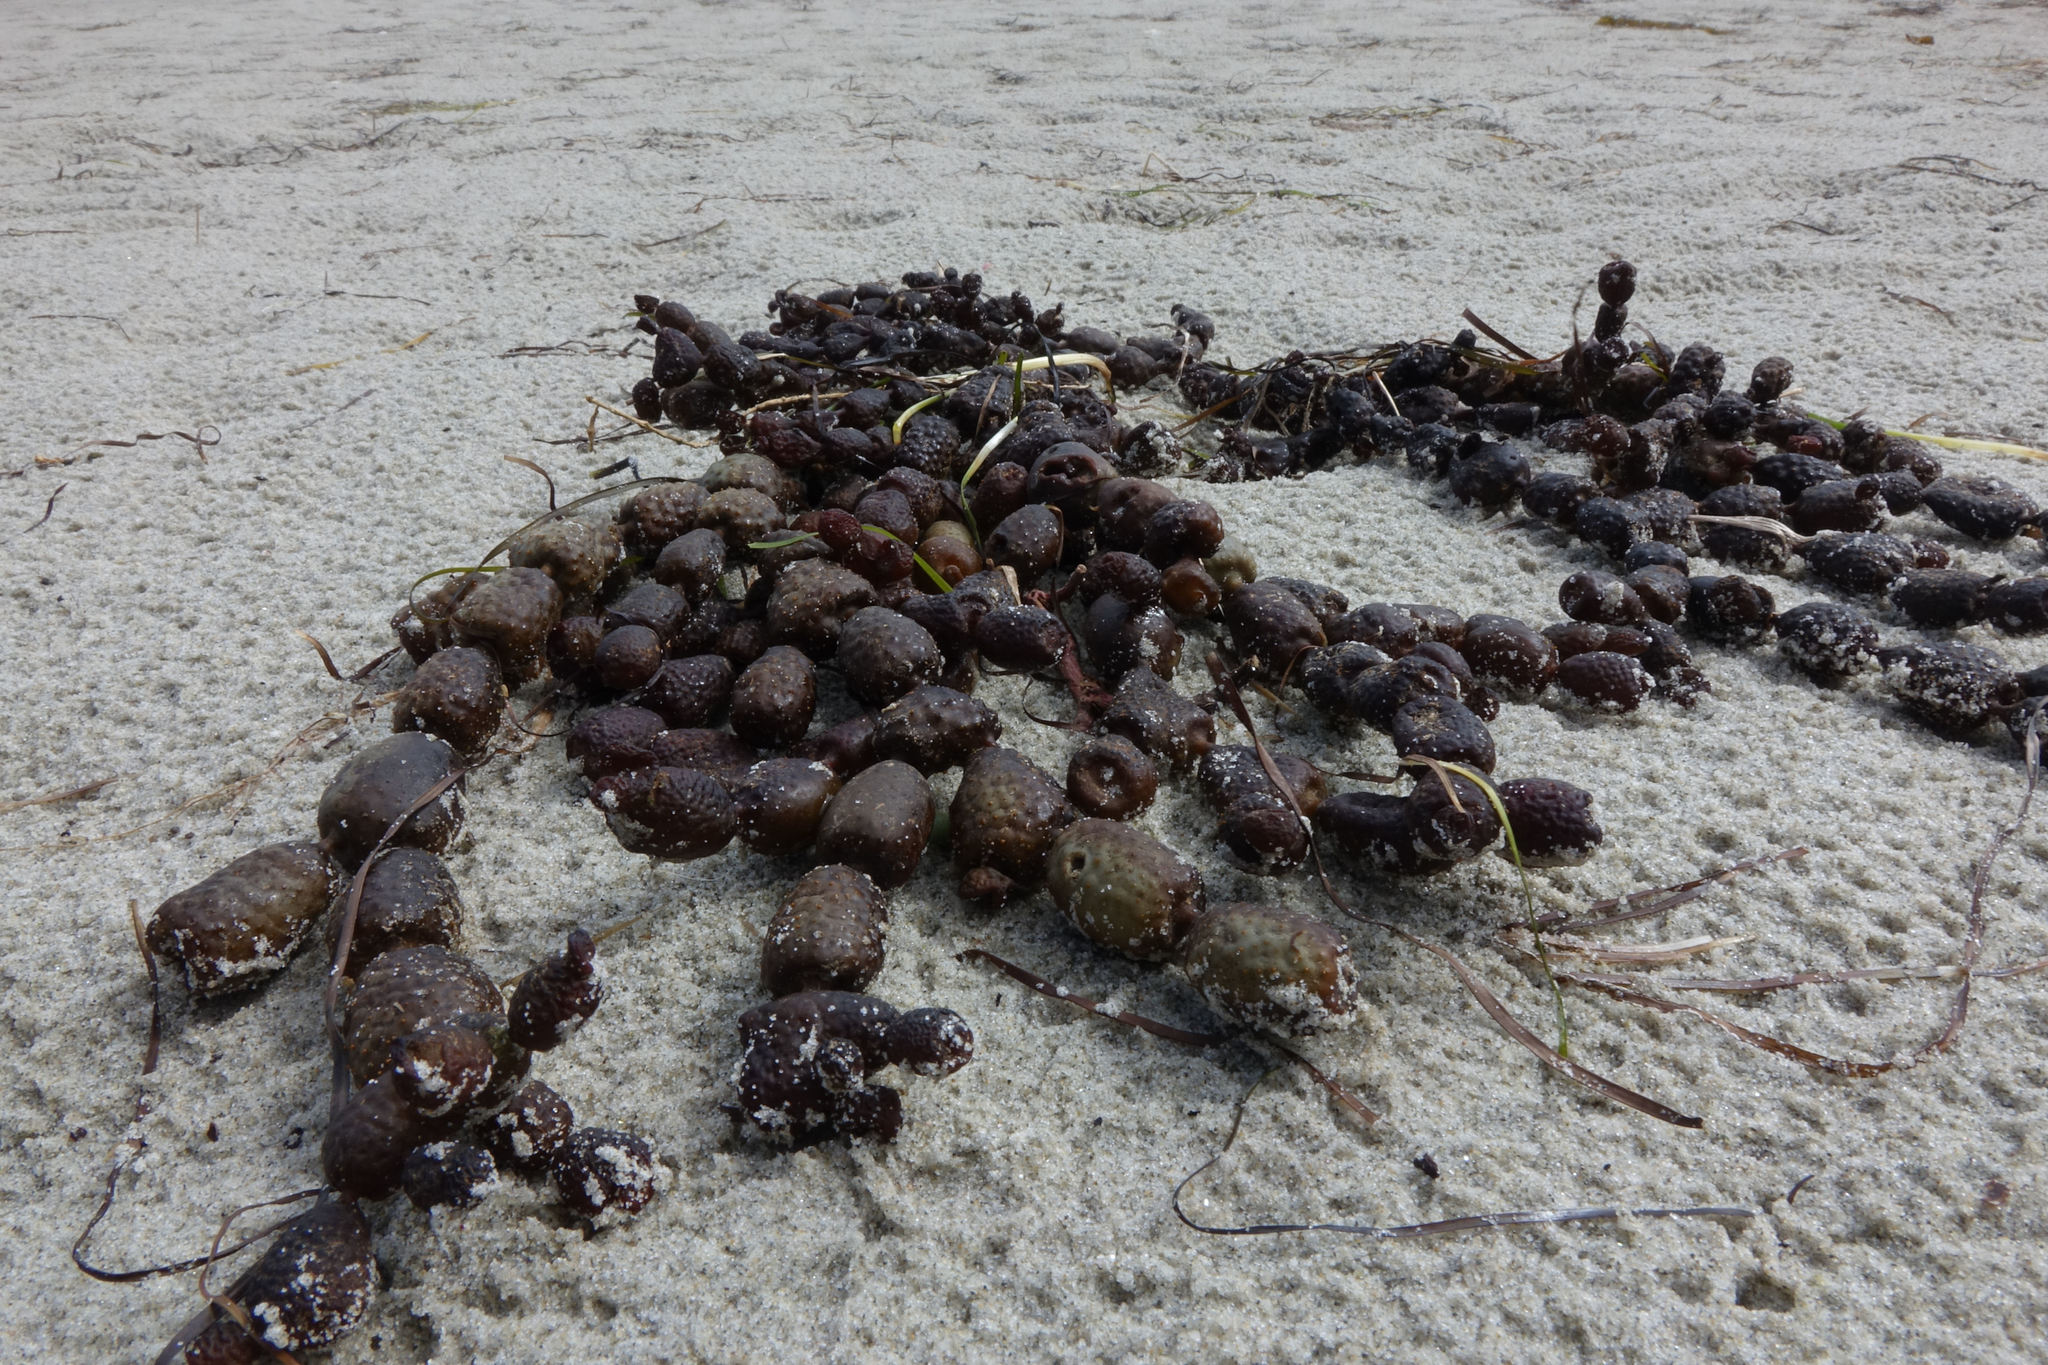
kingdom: Chromista
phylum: Ochrophyta
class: Phaeophyceae
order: Fucales
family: Hormosiraceae
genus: Hormosira
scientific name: Hormosira banksii
